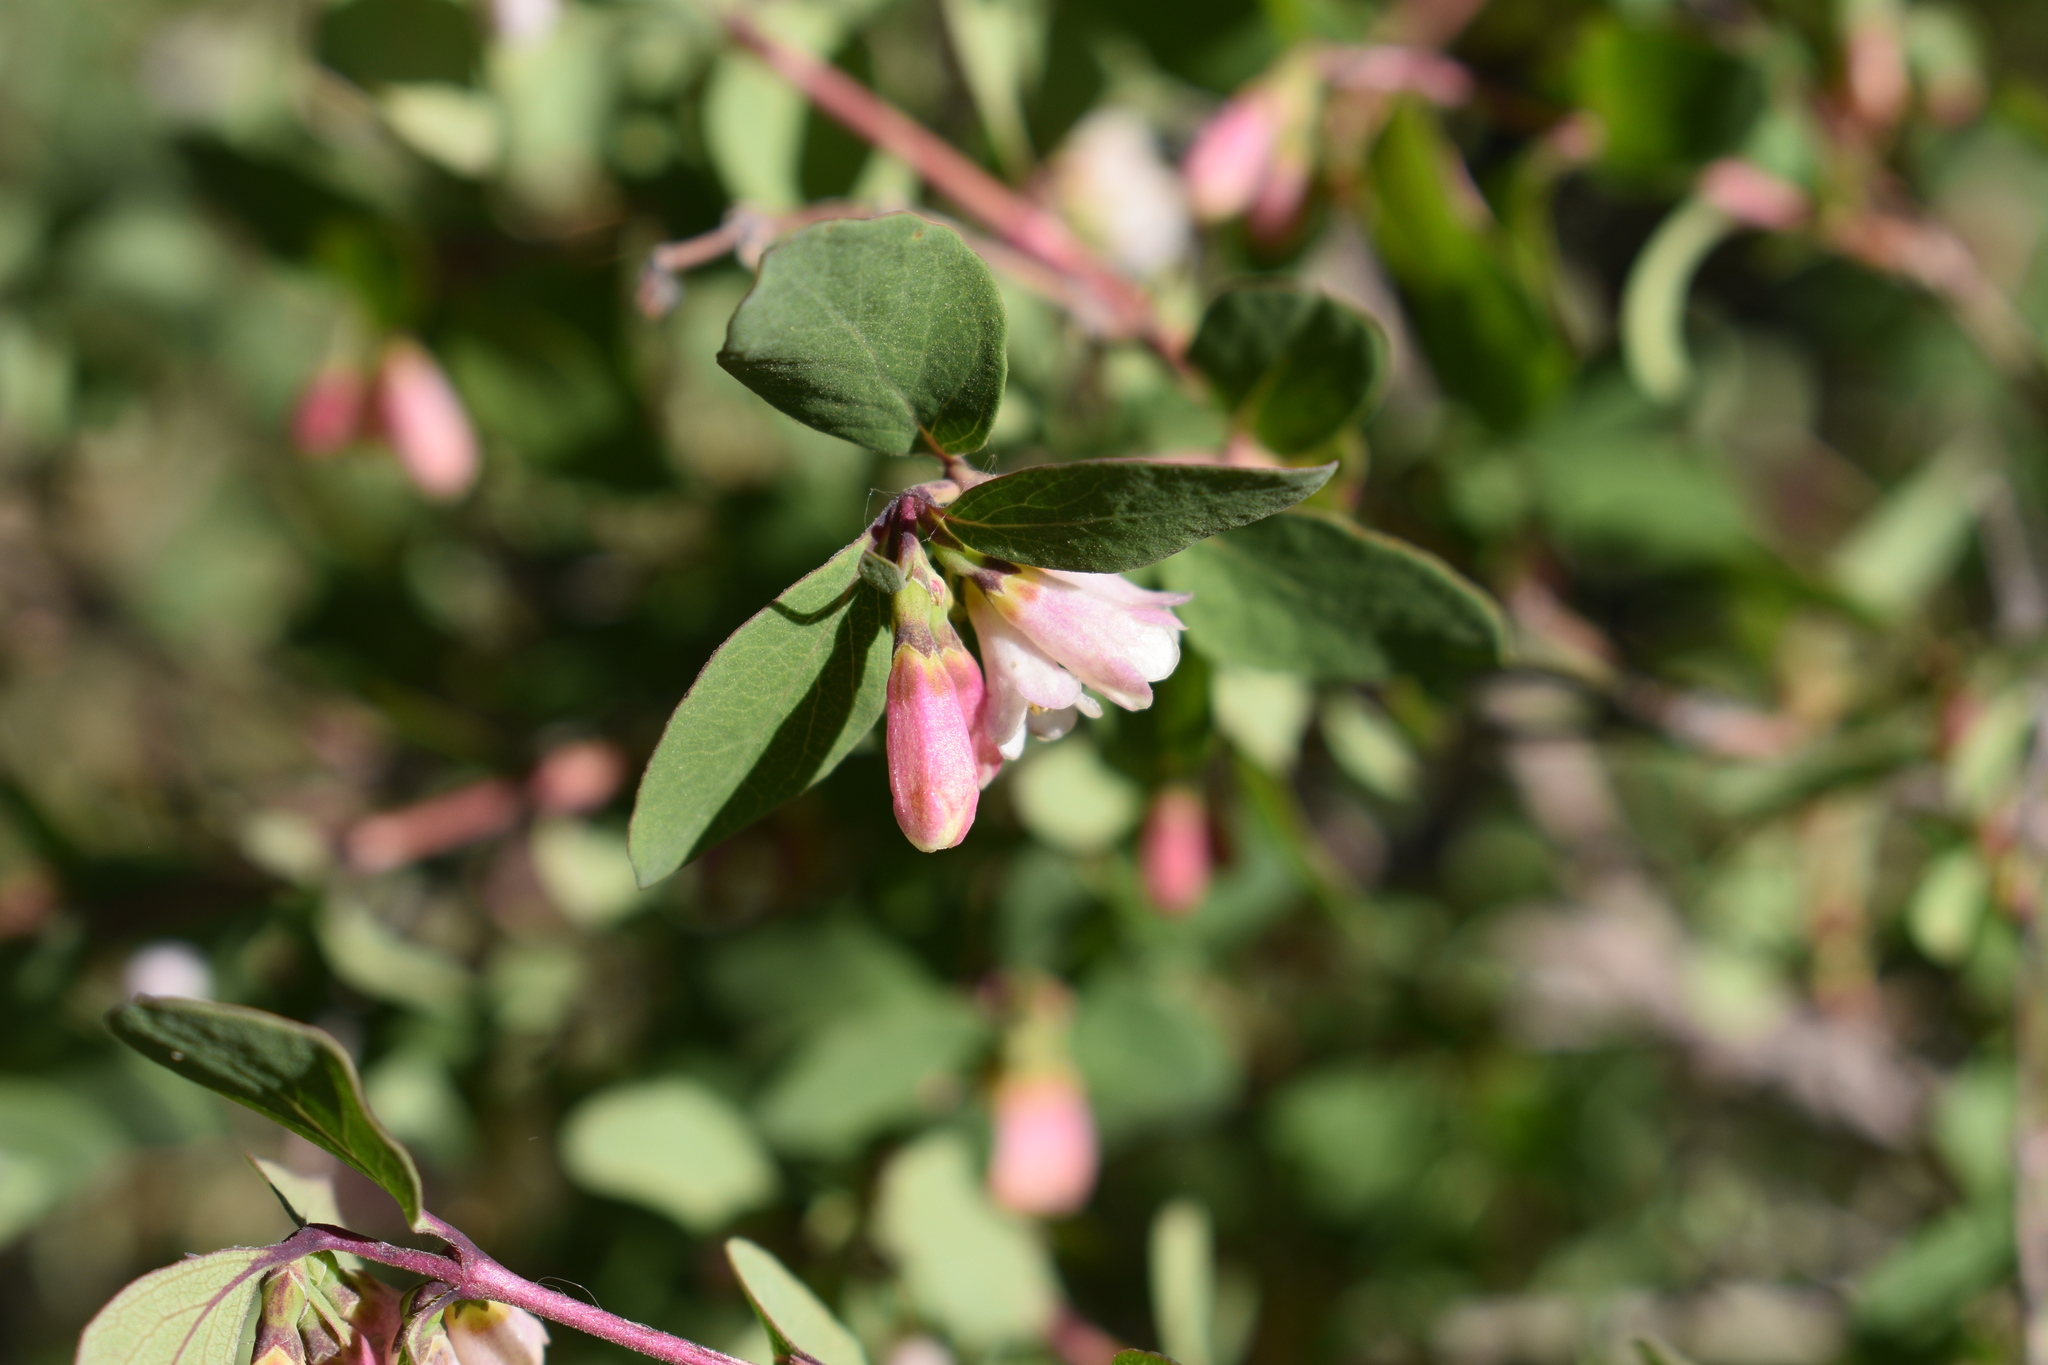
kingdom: Plantae
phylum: Tracheophyta
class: Magnoliopsida
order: Dipsacales
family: Caprifoliaceae
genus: Symphoricarpos
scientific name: Symphoricarpos rotundifolius
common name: Round-leaved snowberry
